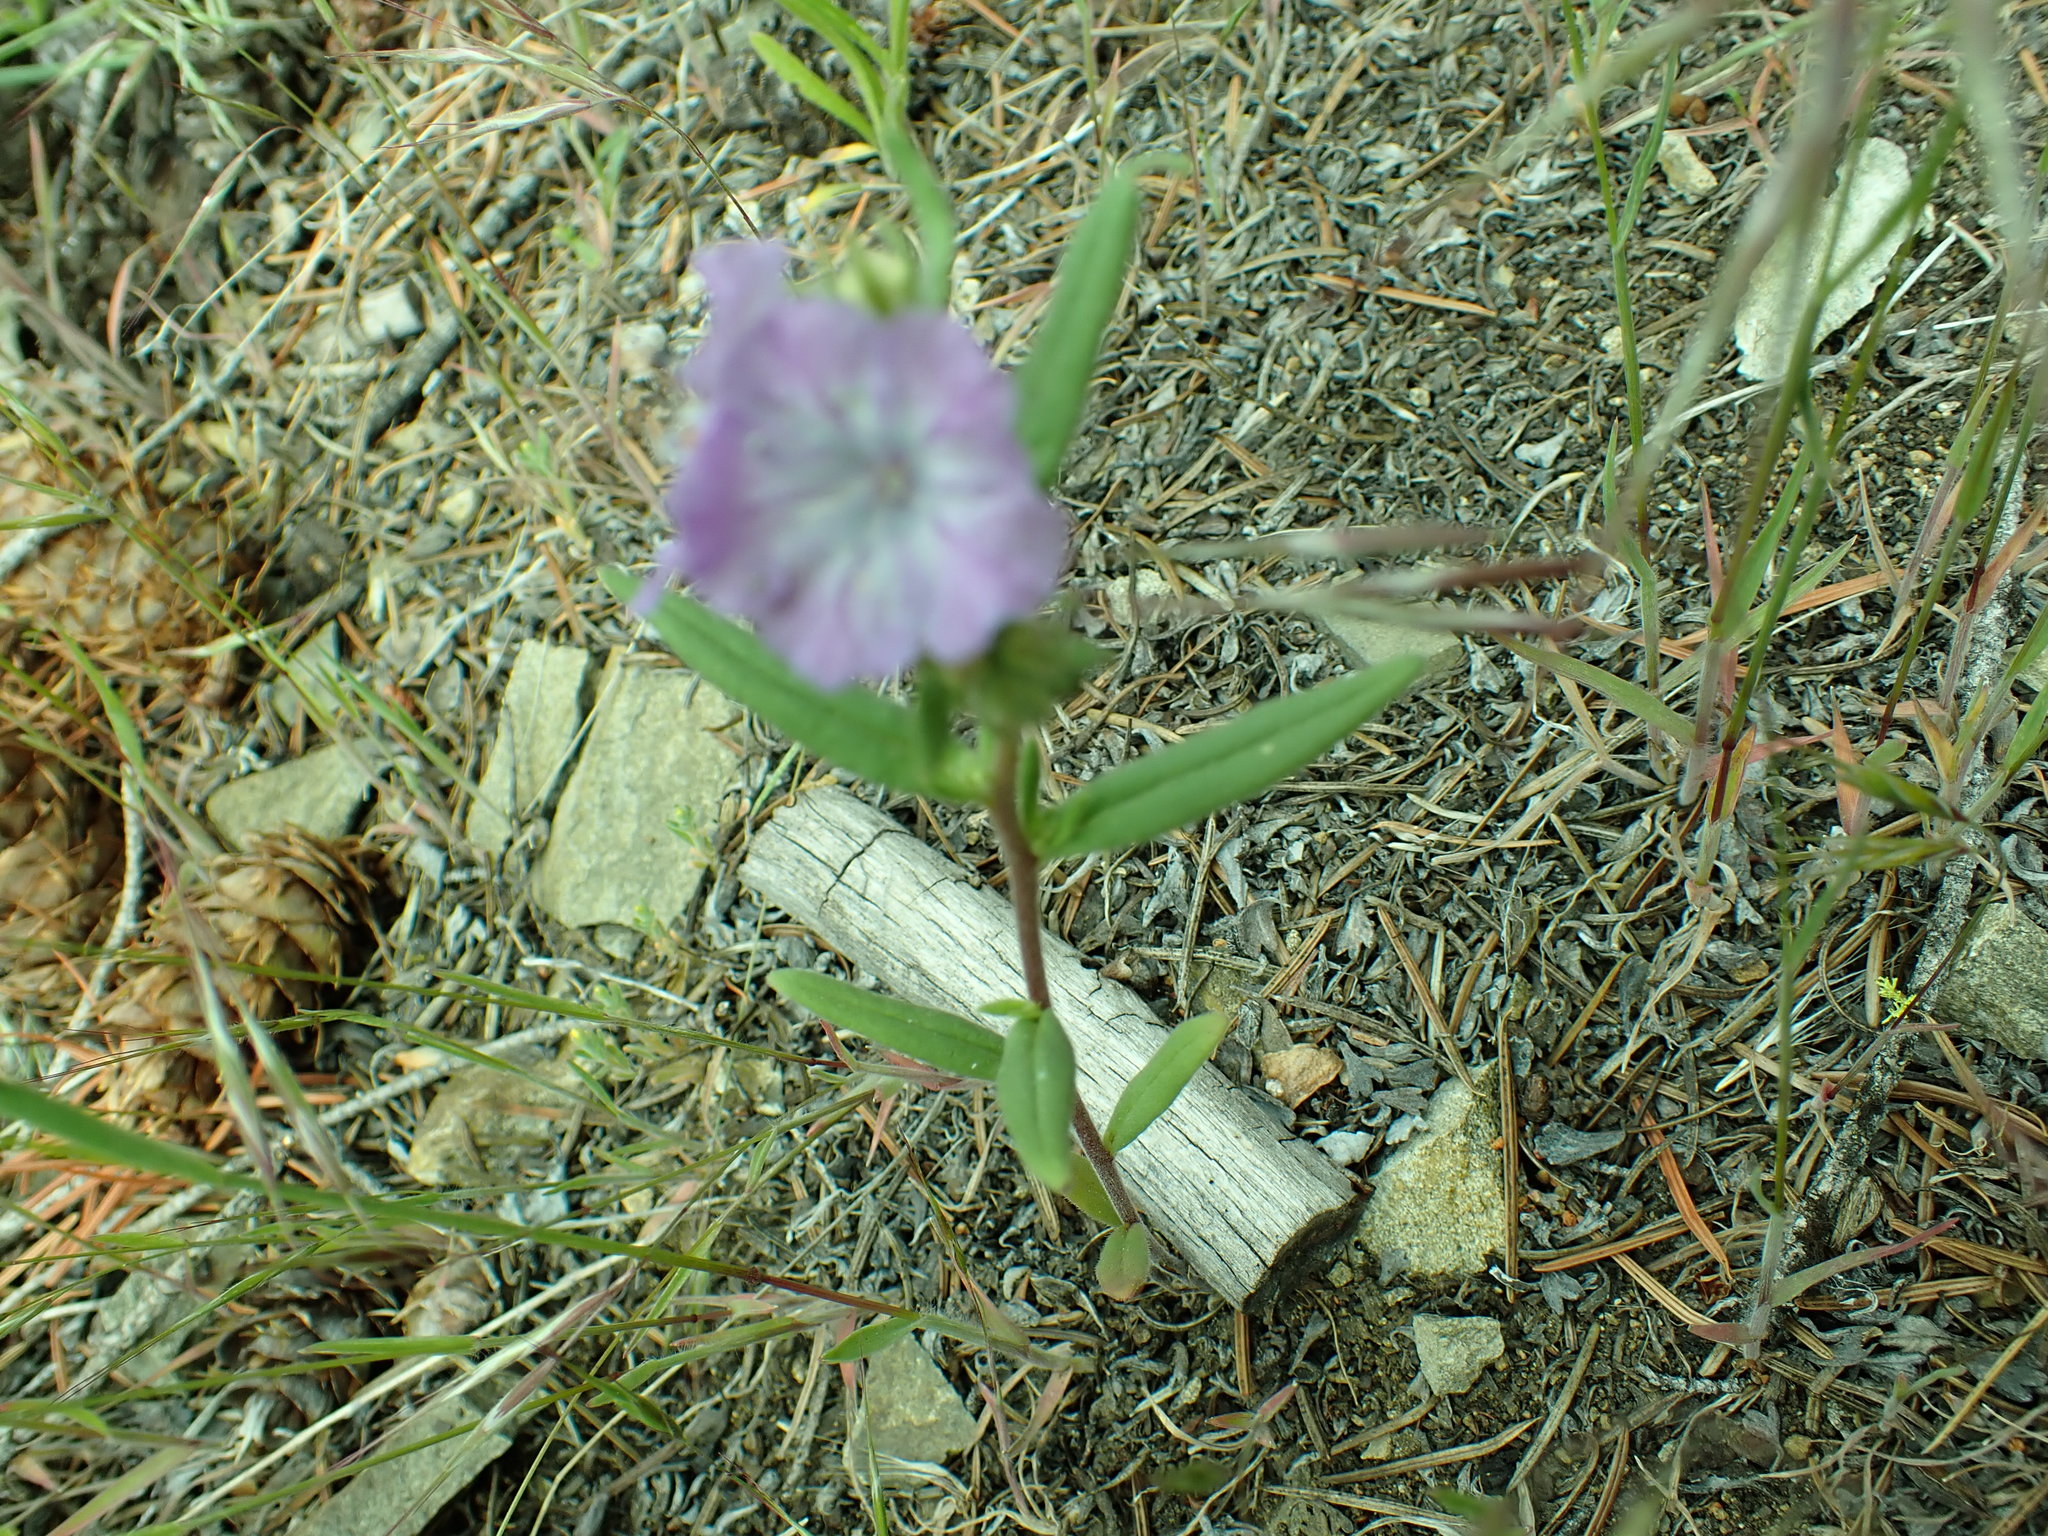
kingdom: Plantae
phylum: Tracheophyta
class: Magnoliopsida
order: Boraginales
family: Hydrophyllaceae
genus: Phacelia
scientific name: Phacelia linearis
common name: Linear-leaved phacelia
